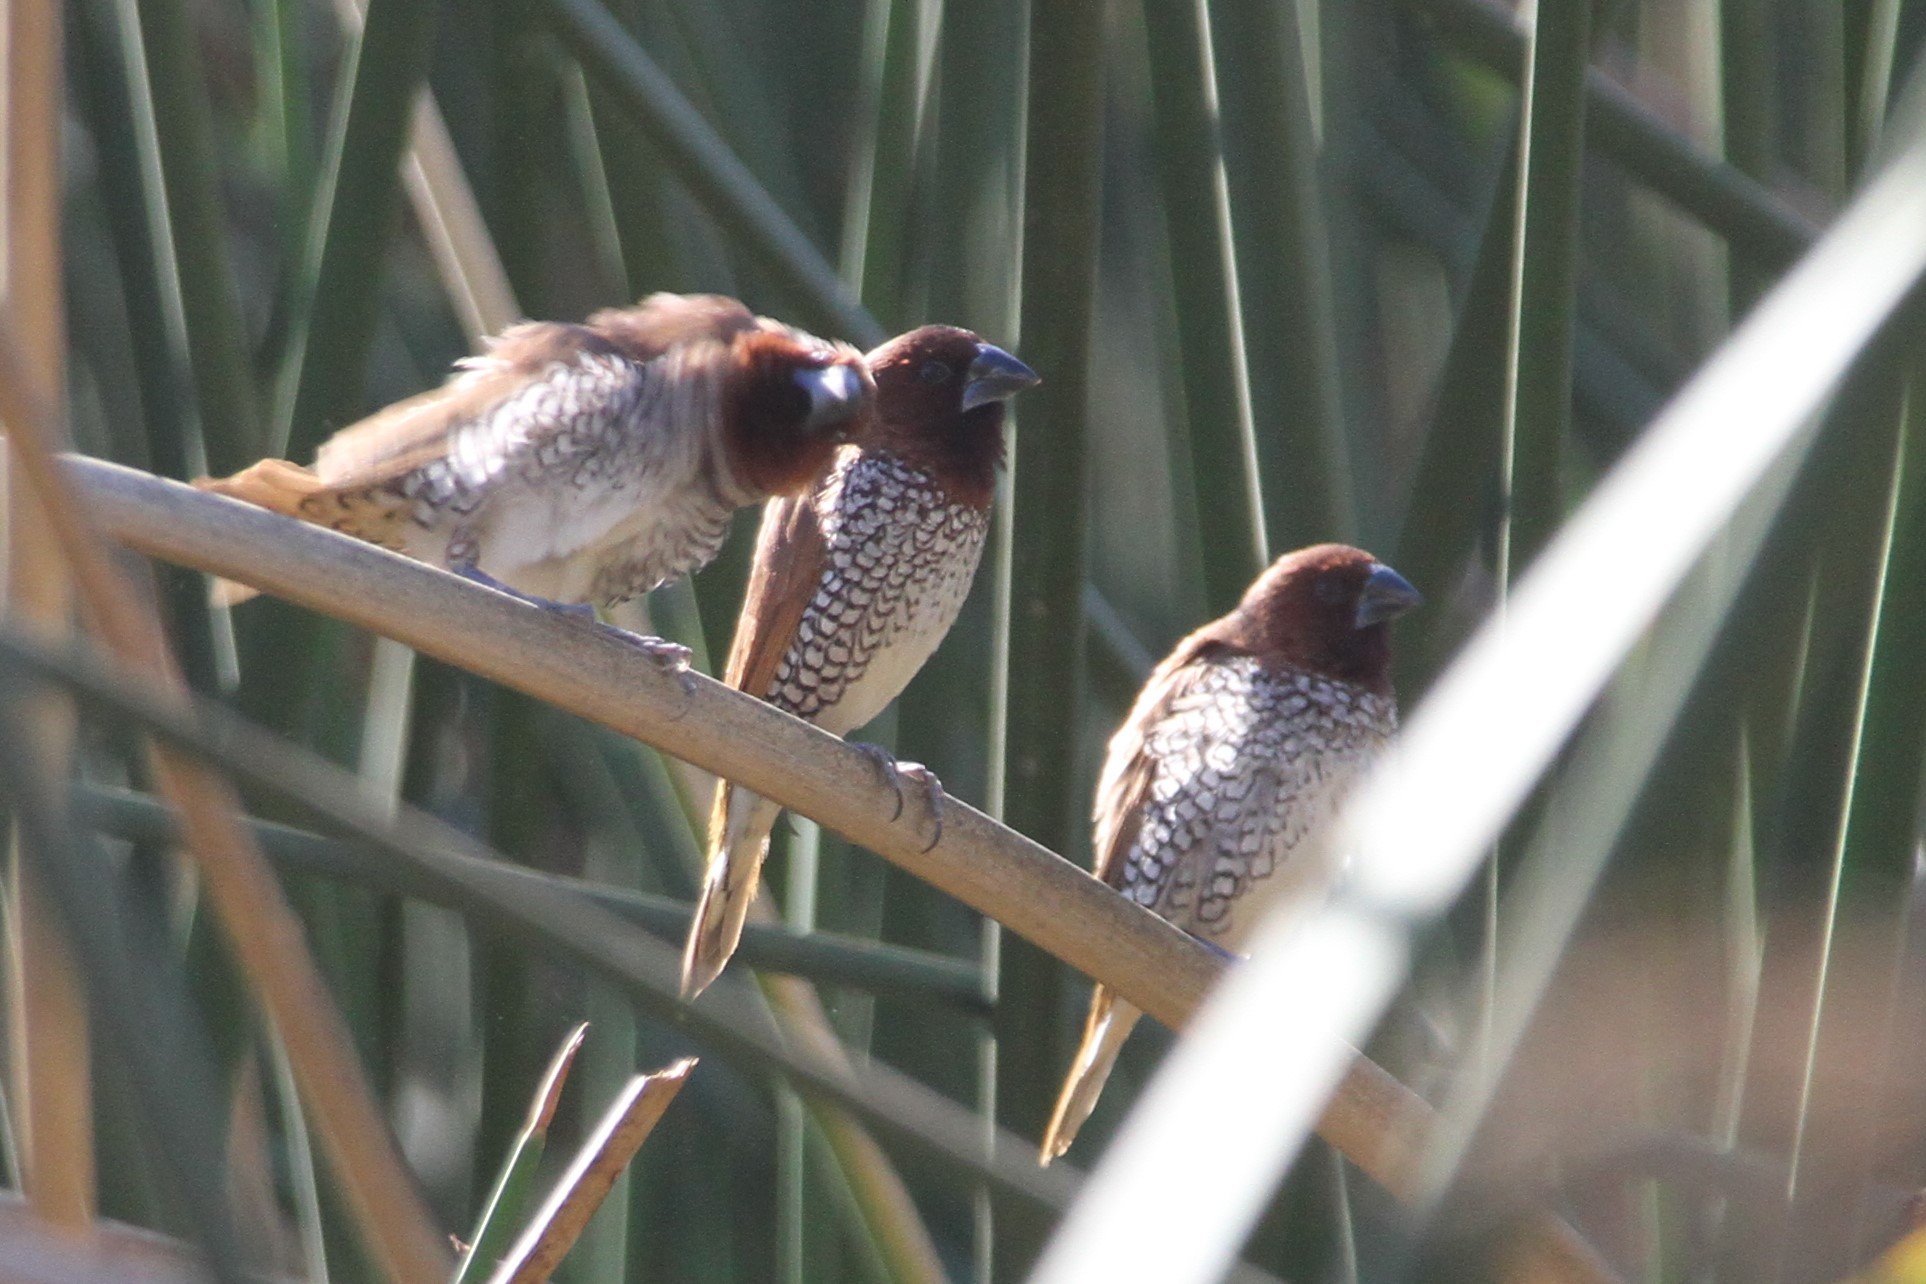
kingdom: Animalia
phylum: Chordata
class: Aves
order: Passeriformes
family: Estrildidae
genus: Lonchura
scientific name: Lonchura punctulata
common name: Scaly-breasted munia
